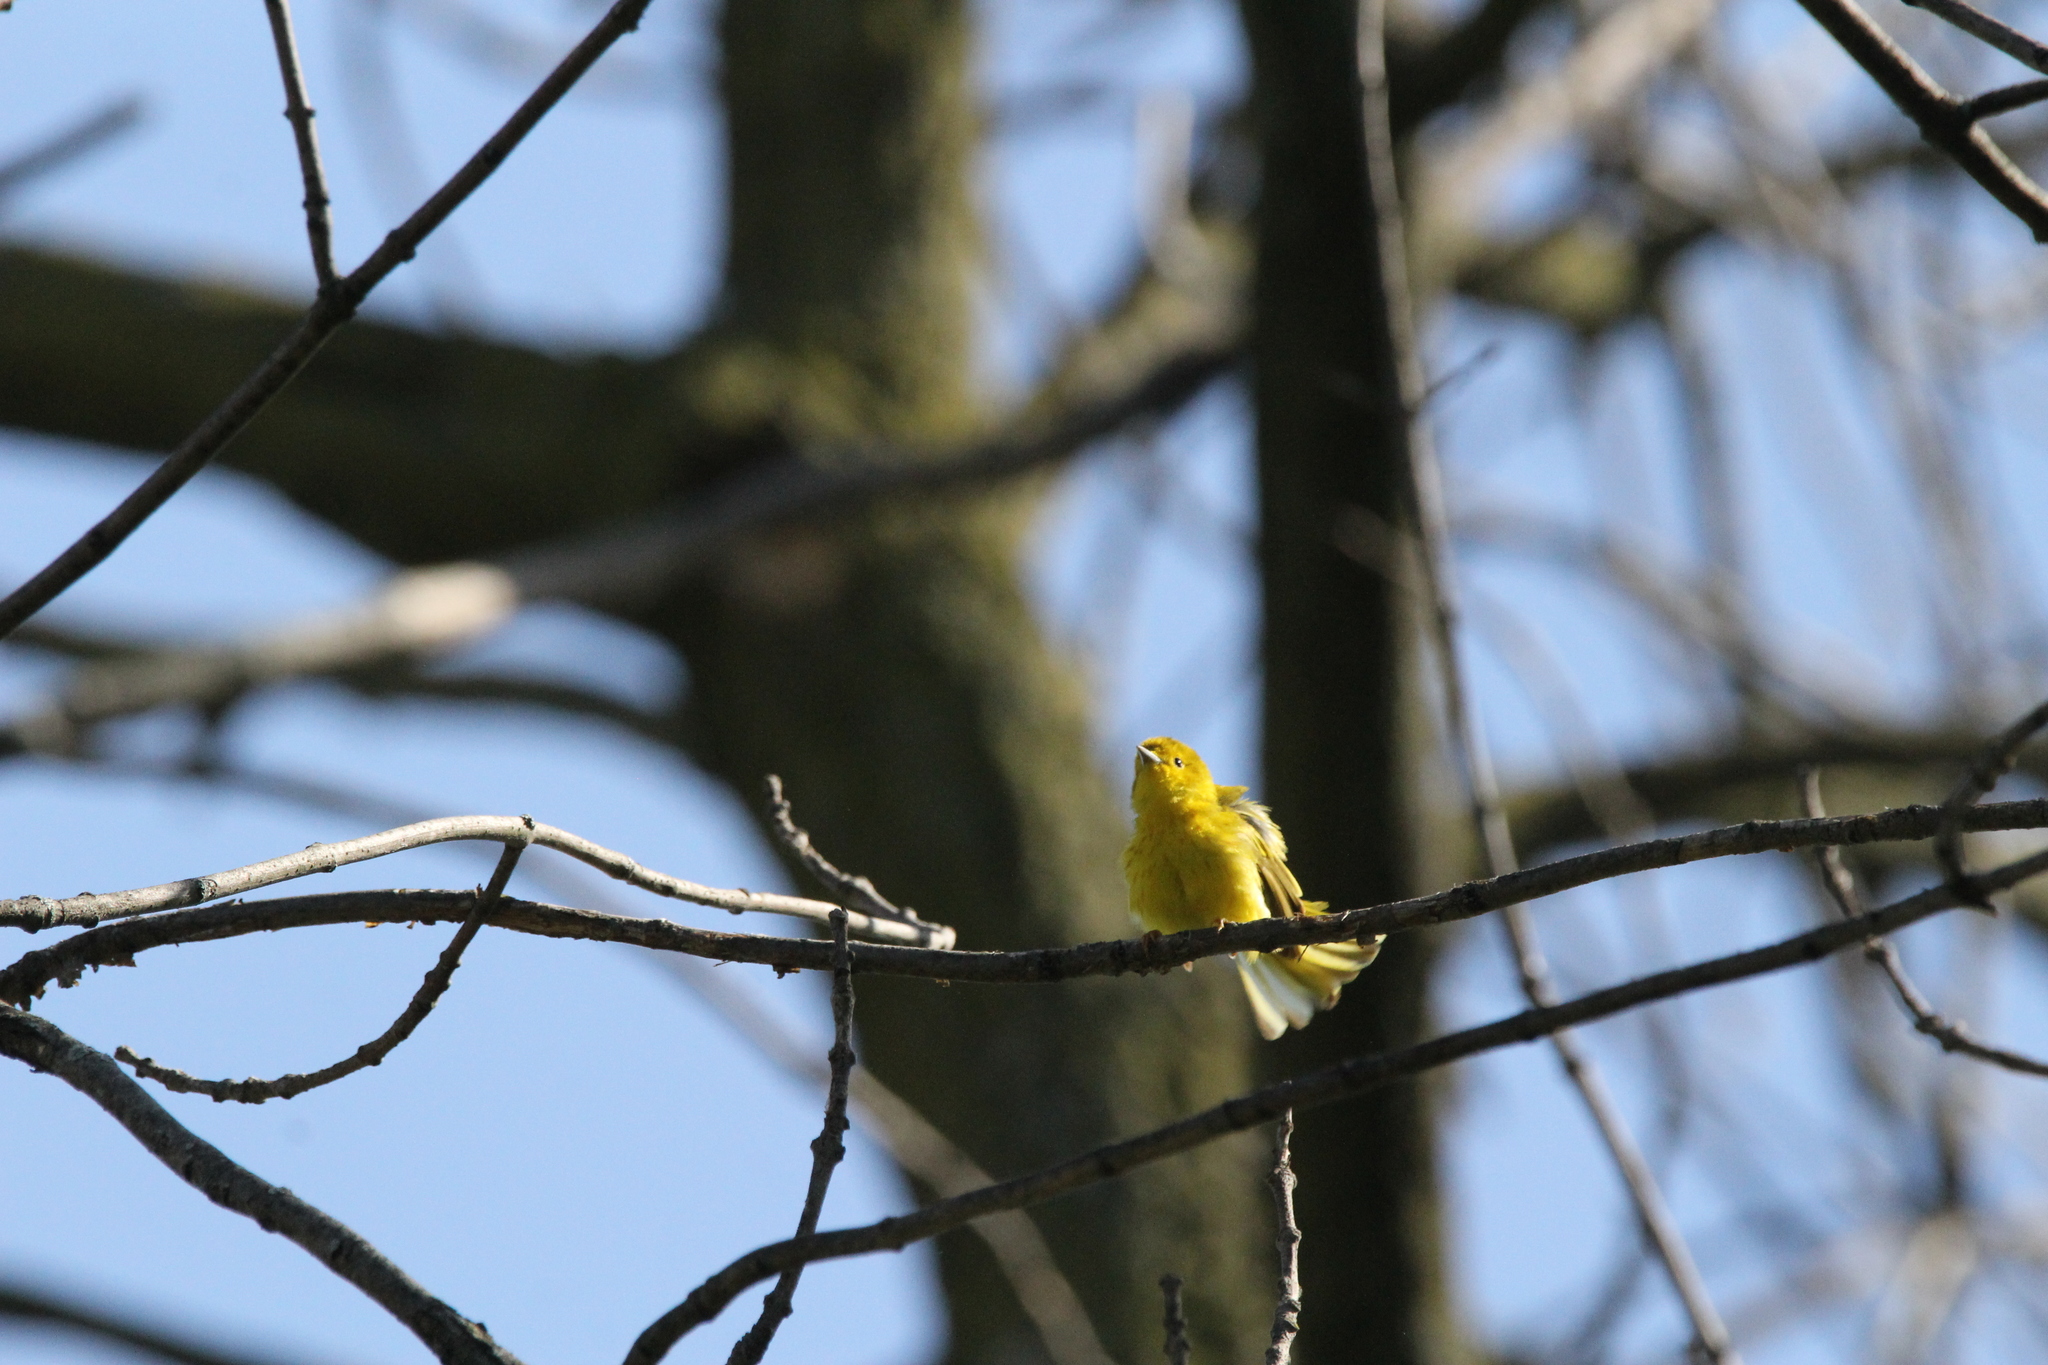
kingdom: Animalia
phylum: Chordata
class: Aves
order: Passeriformes
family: Parulidae
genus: Setophaga
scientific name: Setophaga petechia
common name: Yellow warbler
